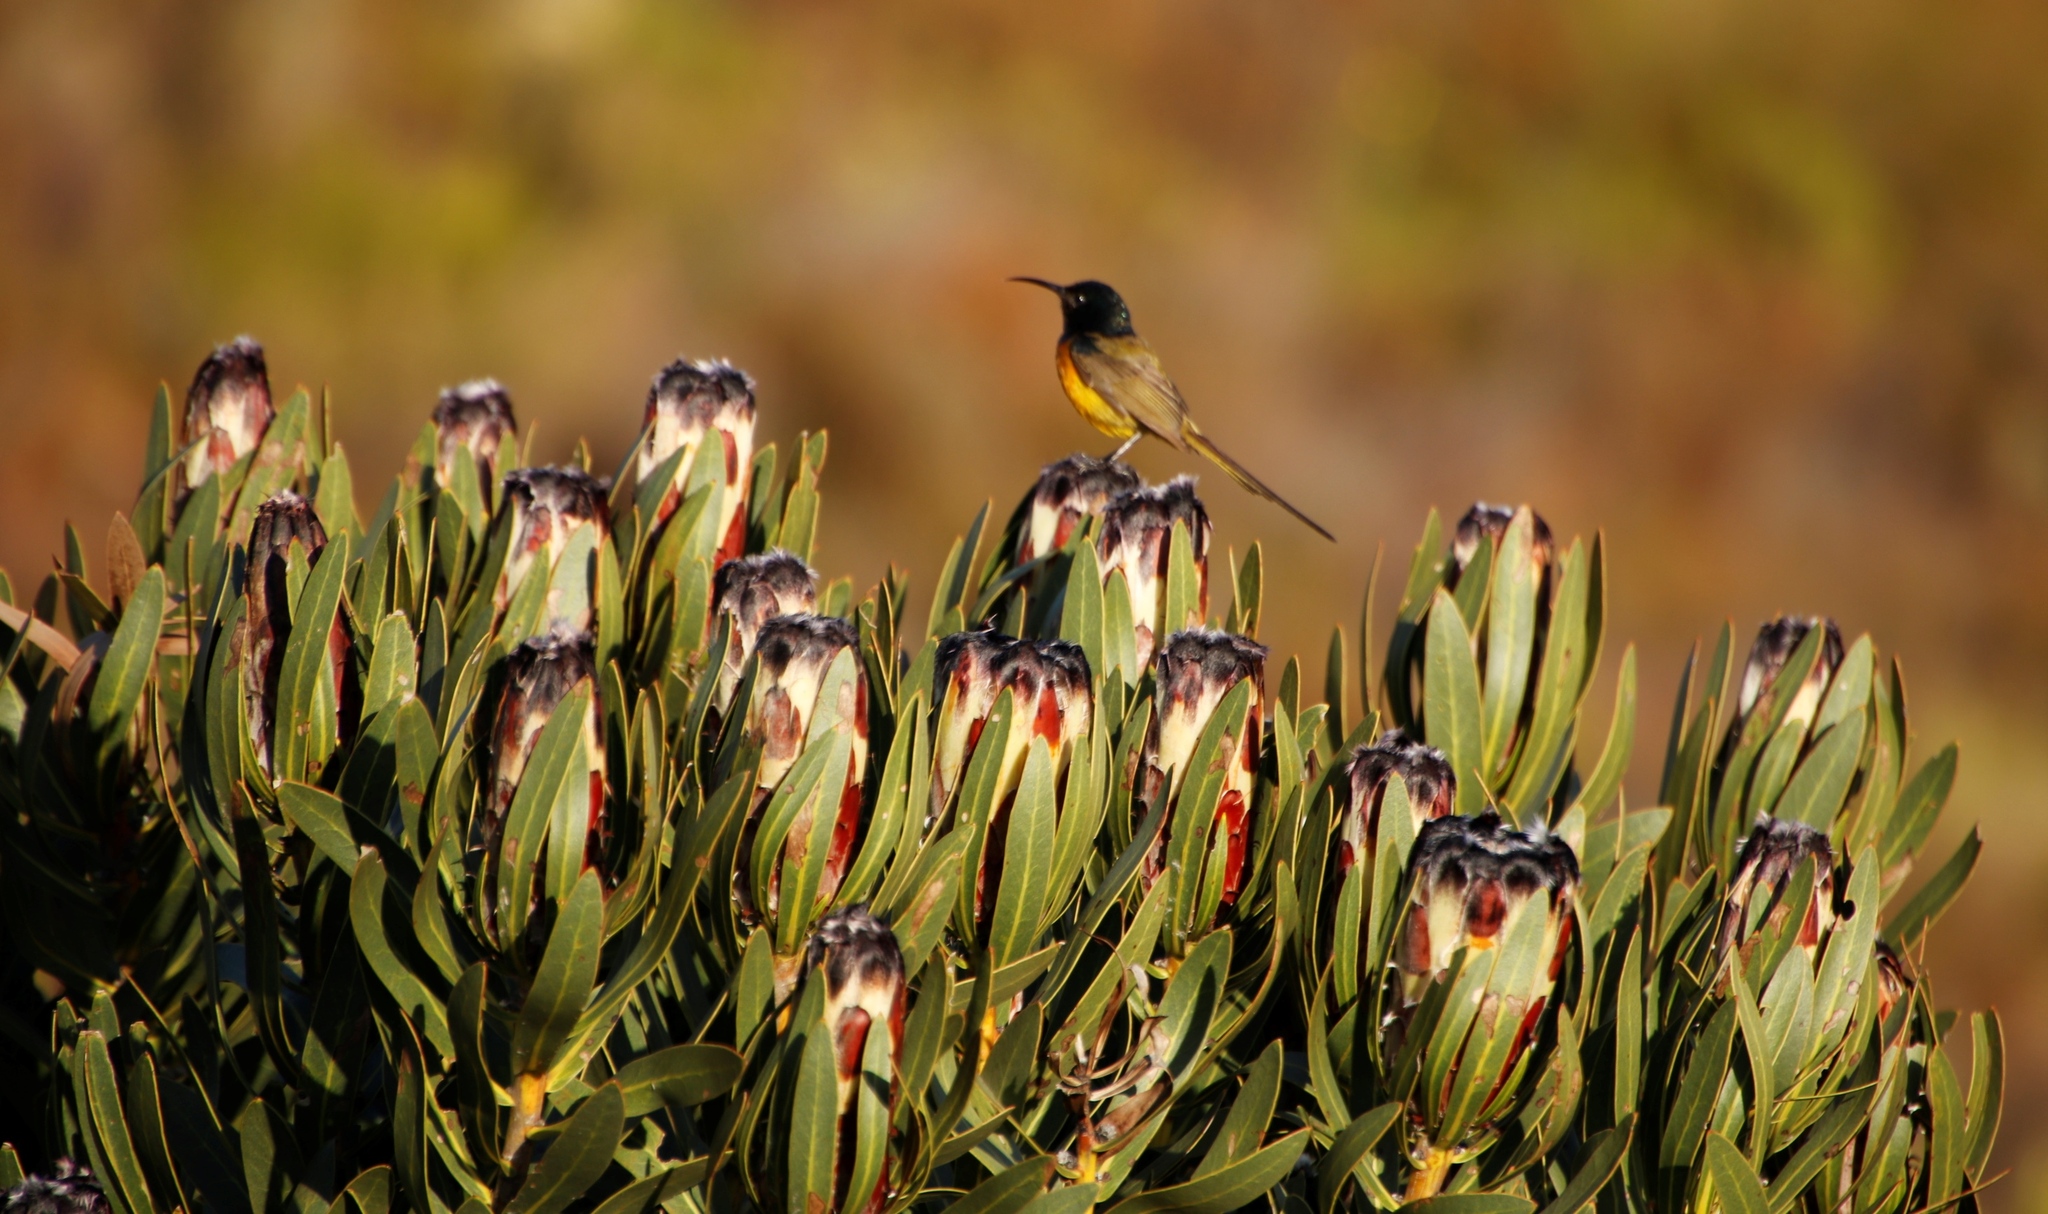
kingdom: Animalia
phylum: Chordata
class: Aves
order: Passeriformes
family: Nectariniidae
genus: Anthobaphes
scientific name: Anthobaphes violacea
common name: Orange-breasted sunbird
